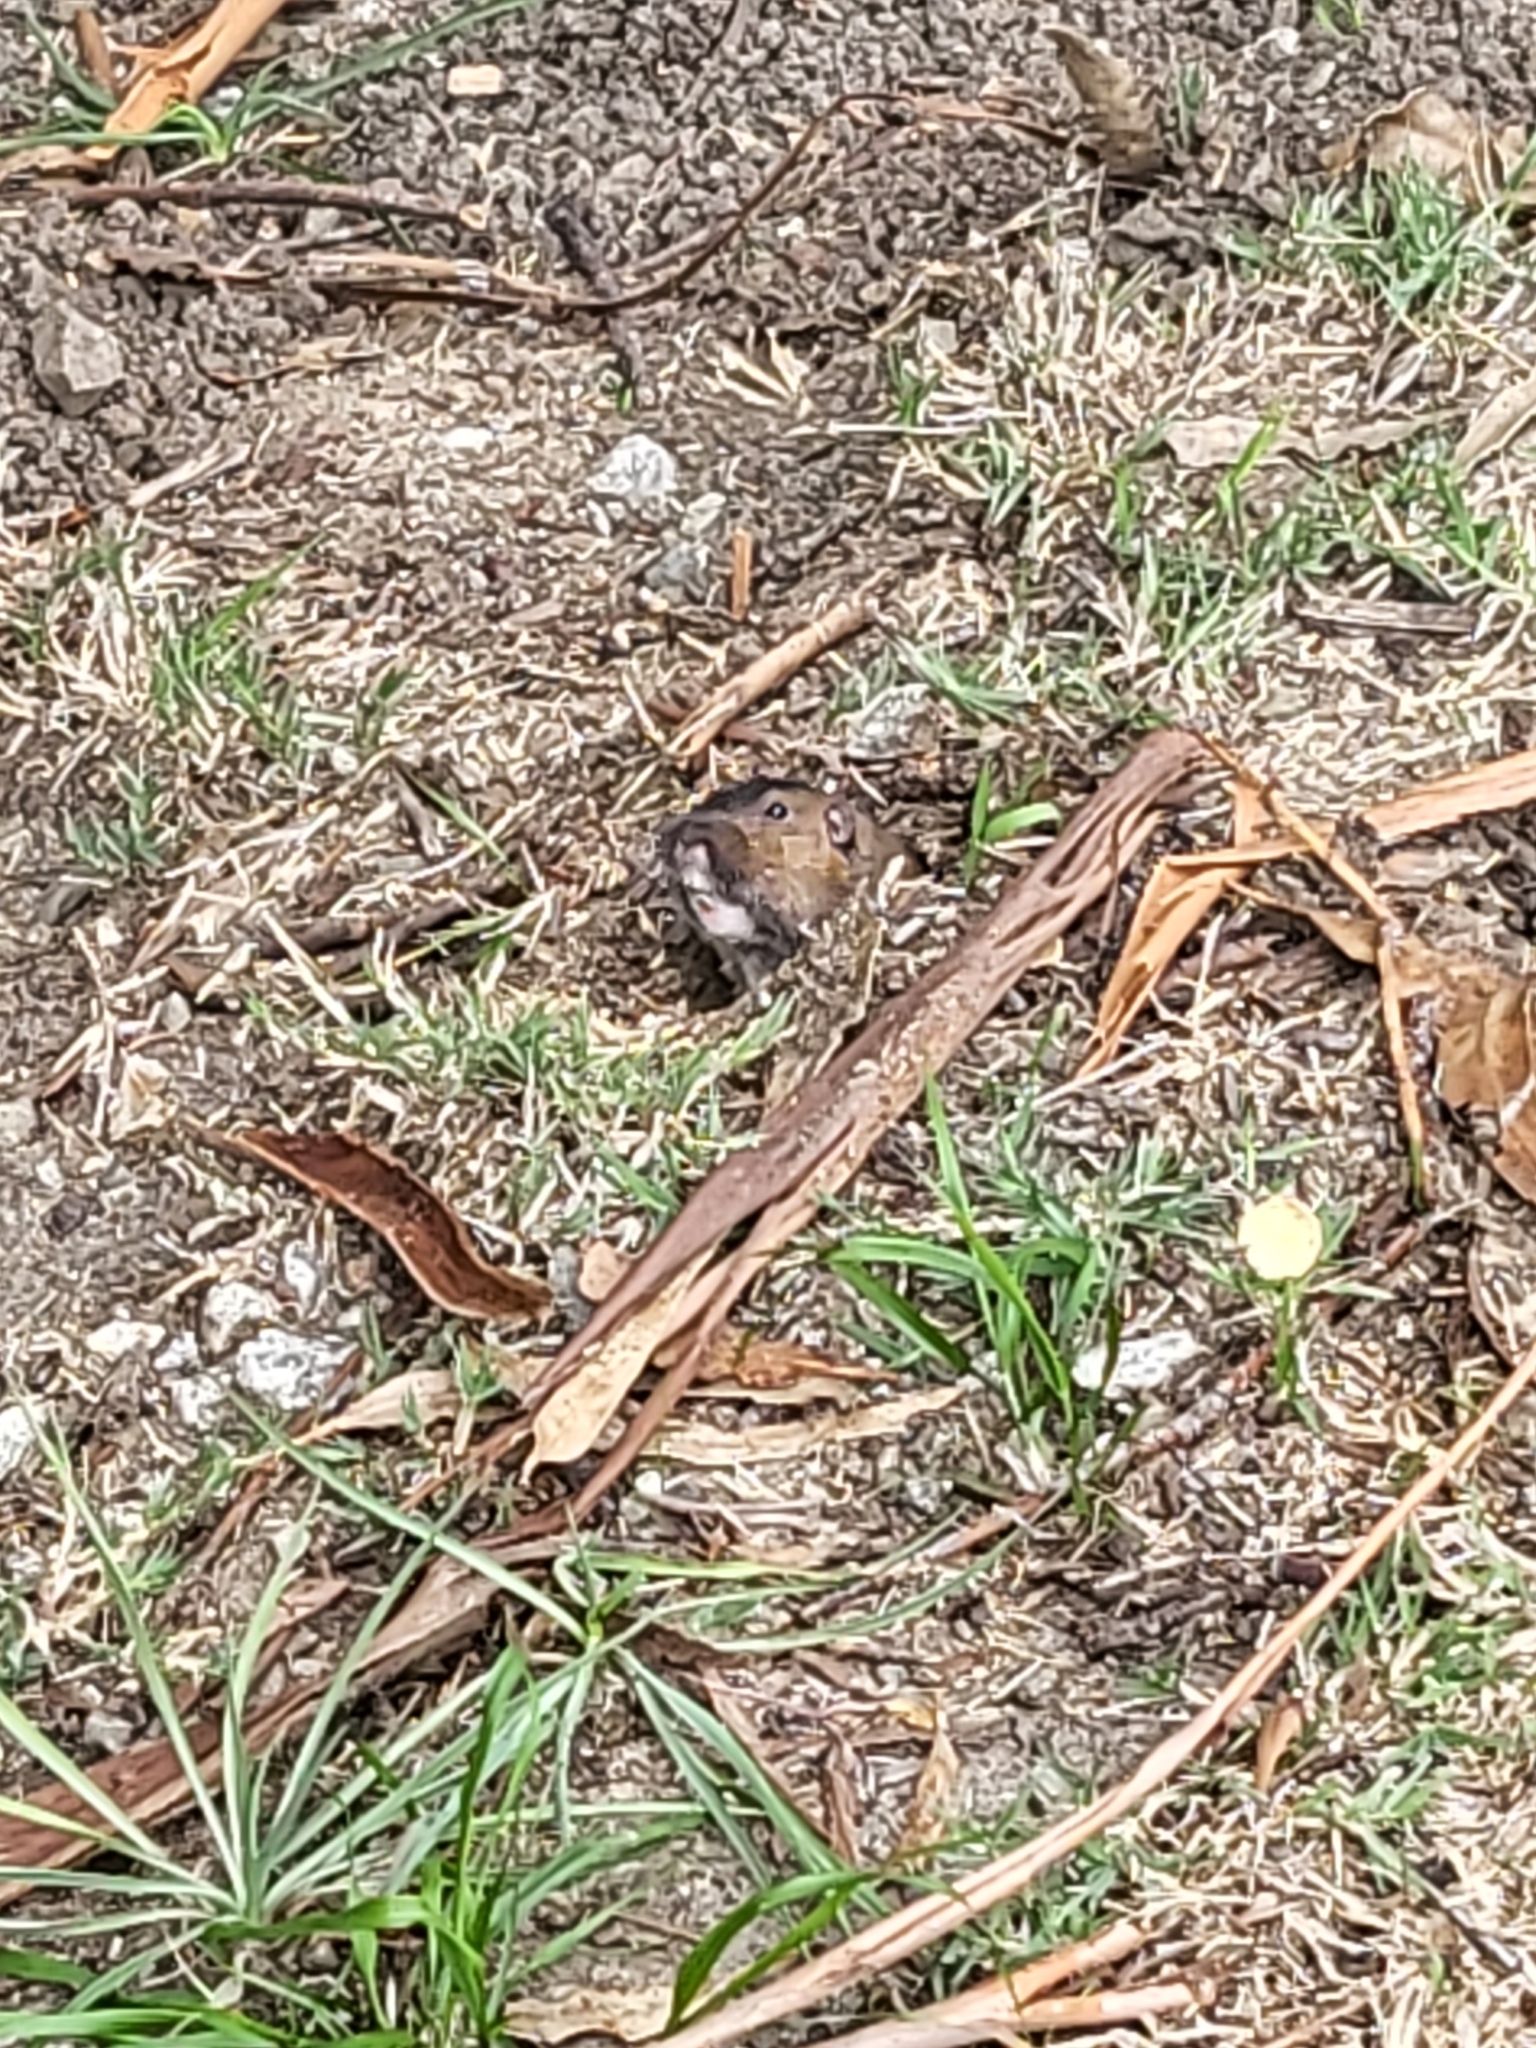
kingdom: Animalia
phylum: Chordata
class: Mammalia
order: Rodentia
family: Geomyidae
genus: Thomomys
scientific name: Thomomys bottae
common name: Botta's pocket gopher
